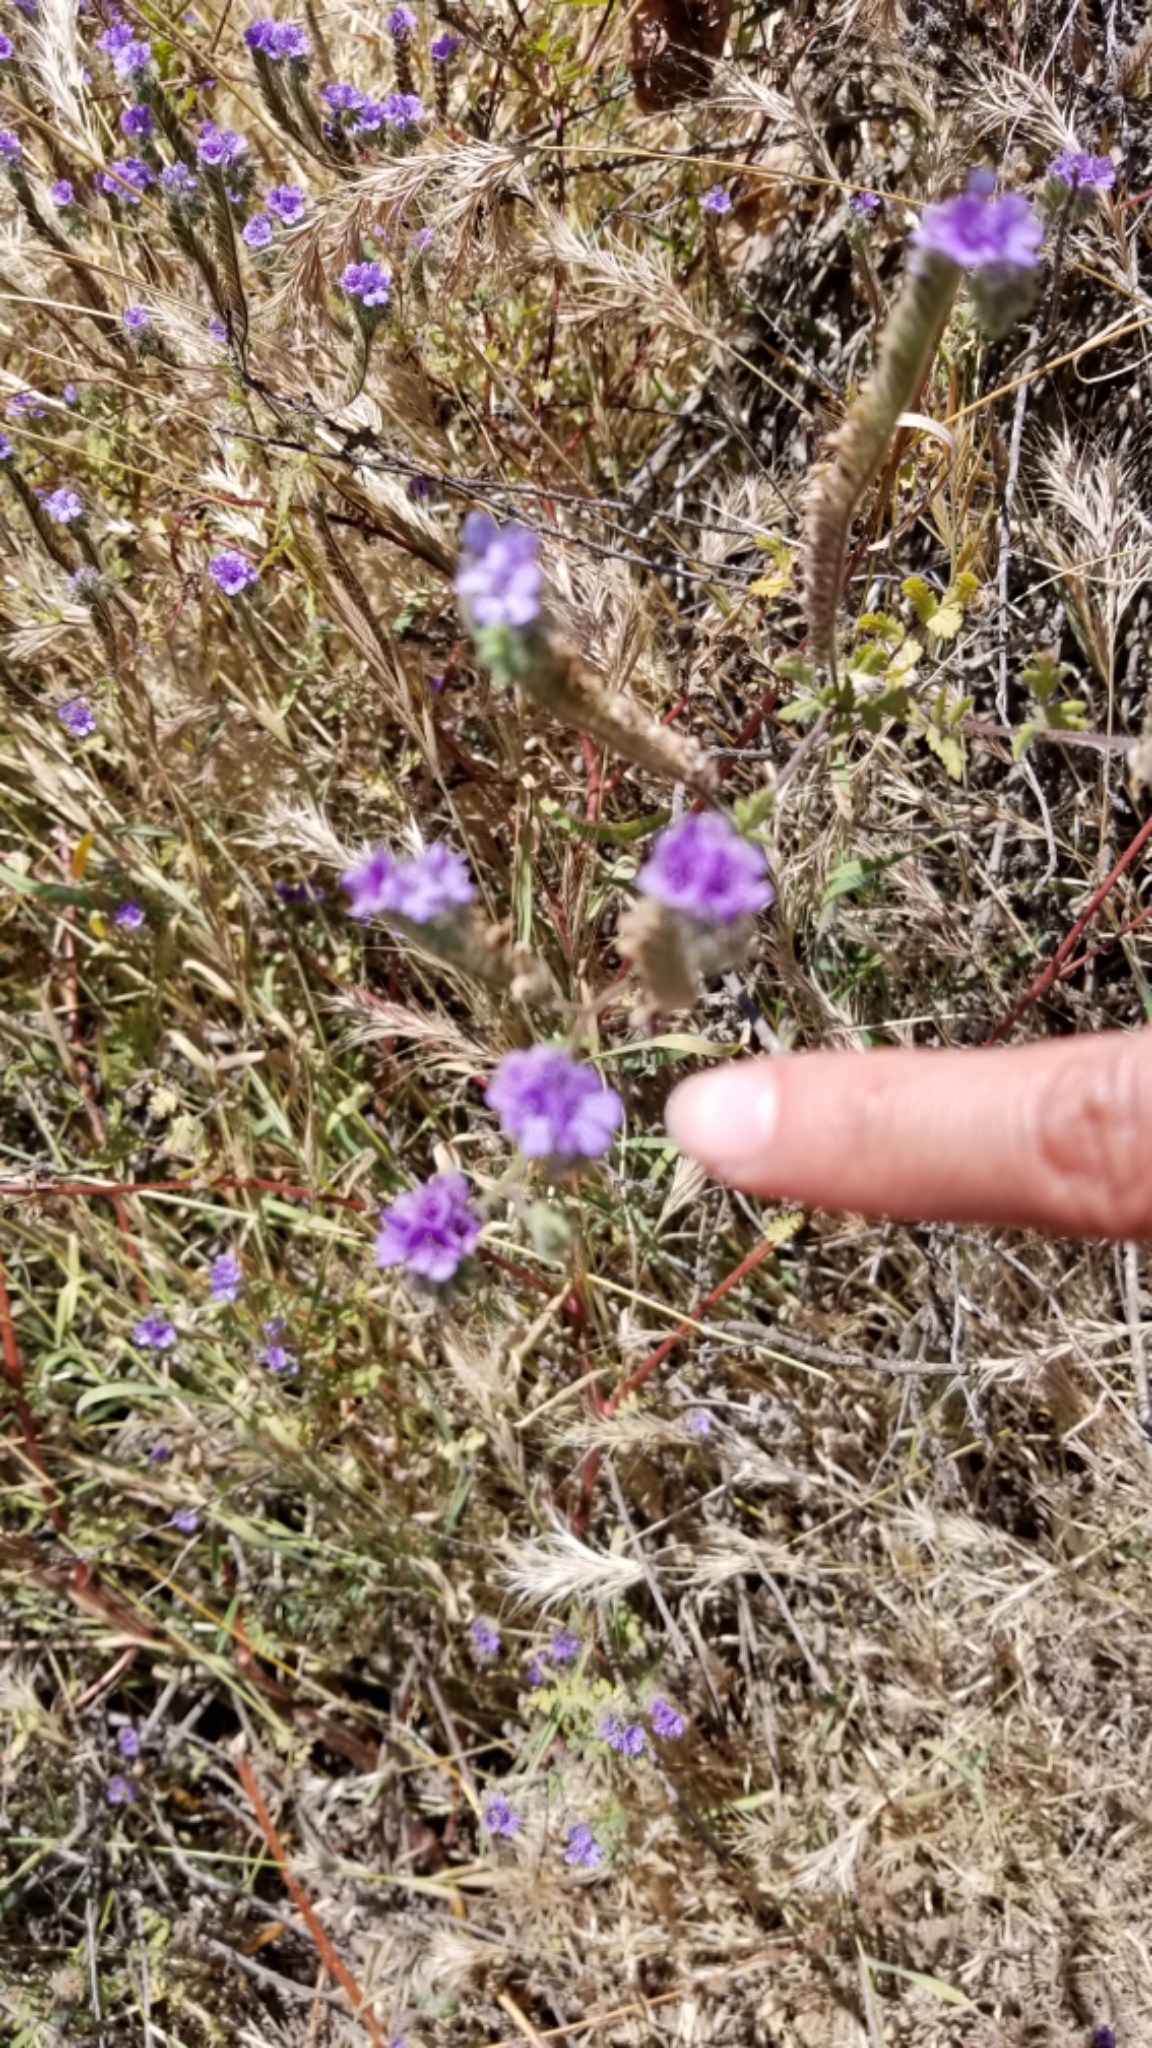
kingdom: Plantae
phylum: Tracheophyta
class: Magnoliopsida
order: Boraginales
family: Hydrophyllaceae
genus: Phacelia
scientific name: Phacelia distans
